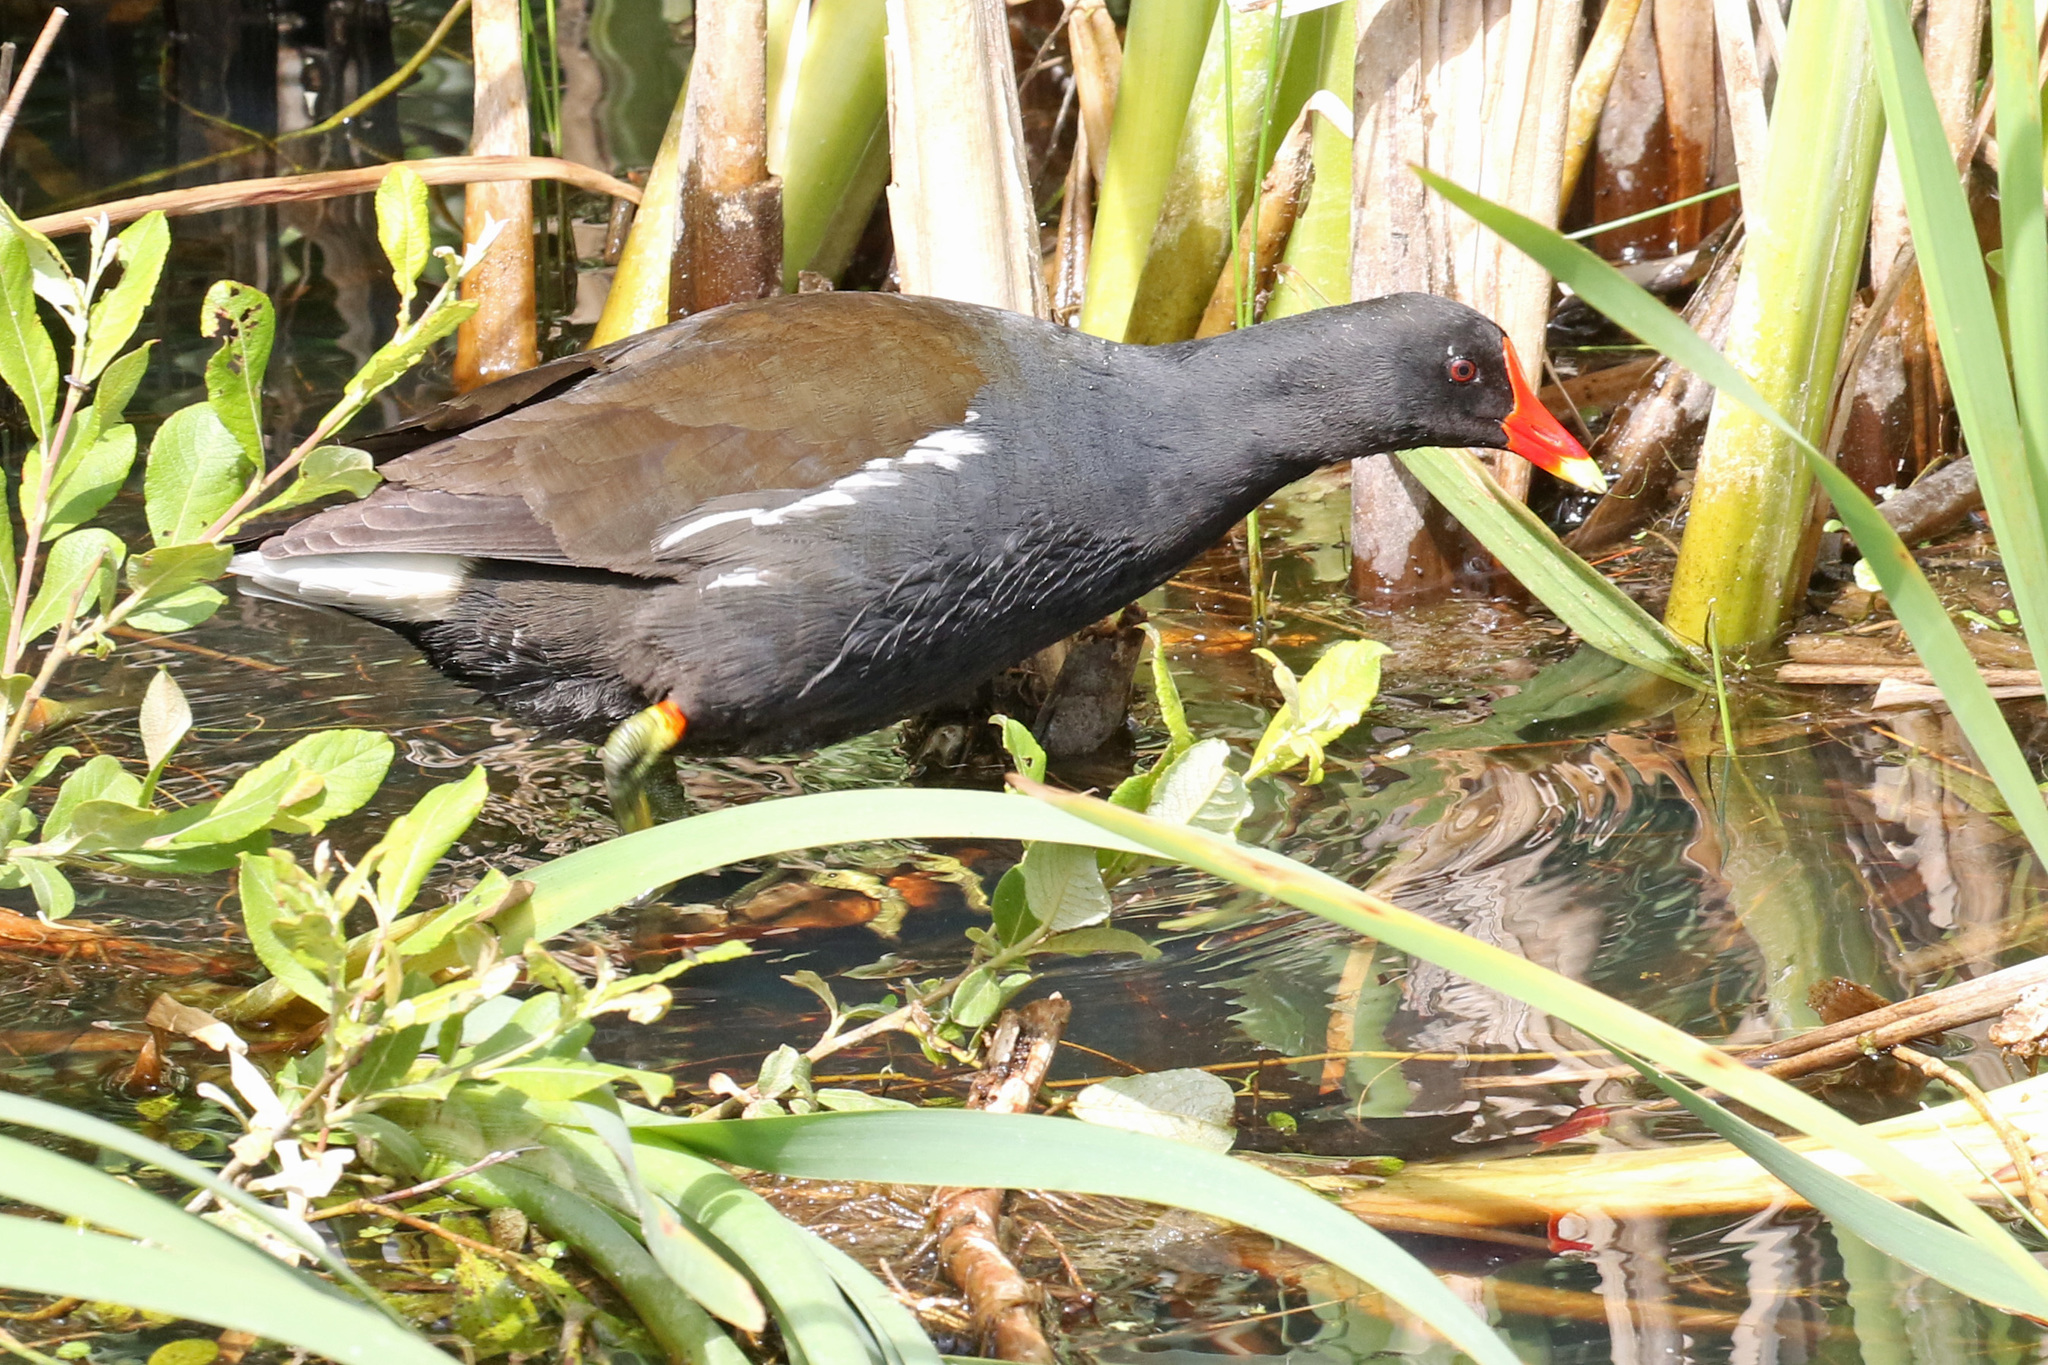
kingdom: Animalia
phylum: Chordata
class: Aves
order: Gruiformes
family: Rallidae
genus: Gallinula
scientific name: Gallinula chloropus
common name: Common moorhen
